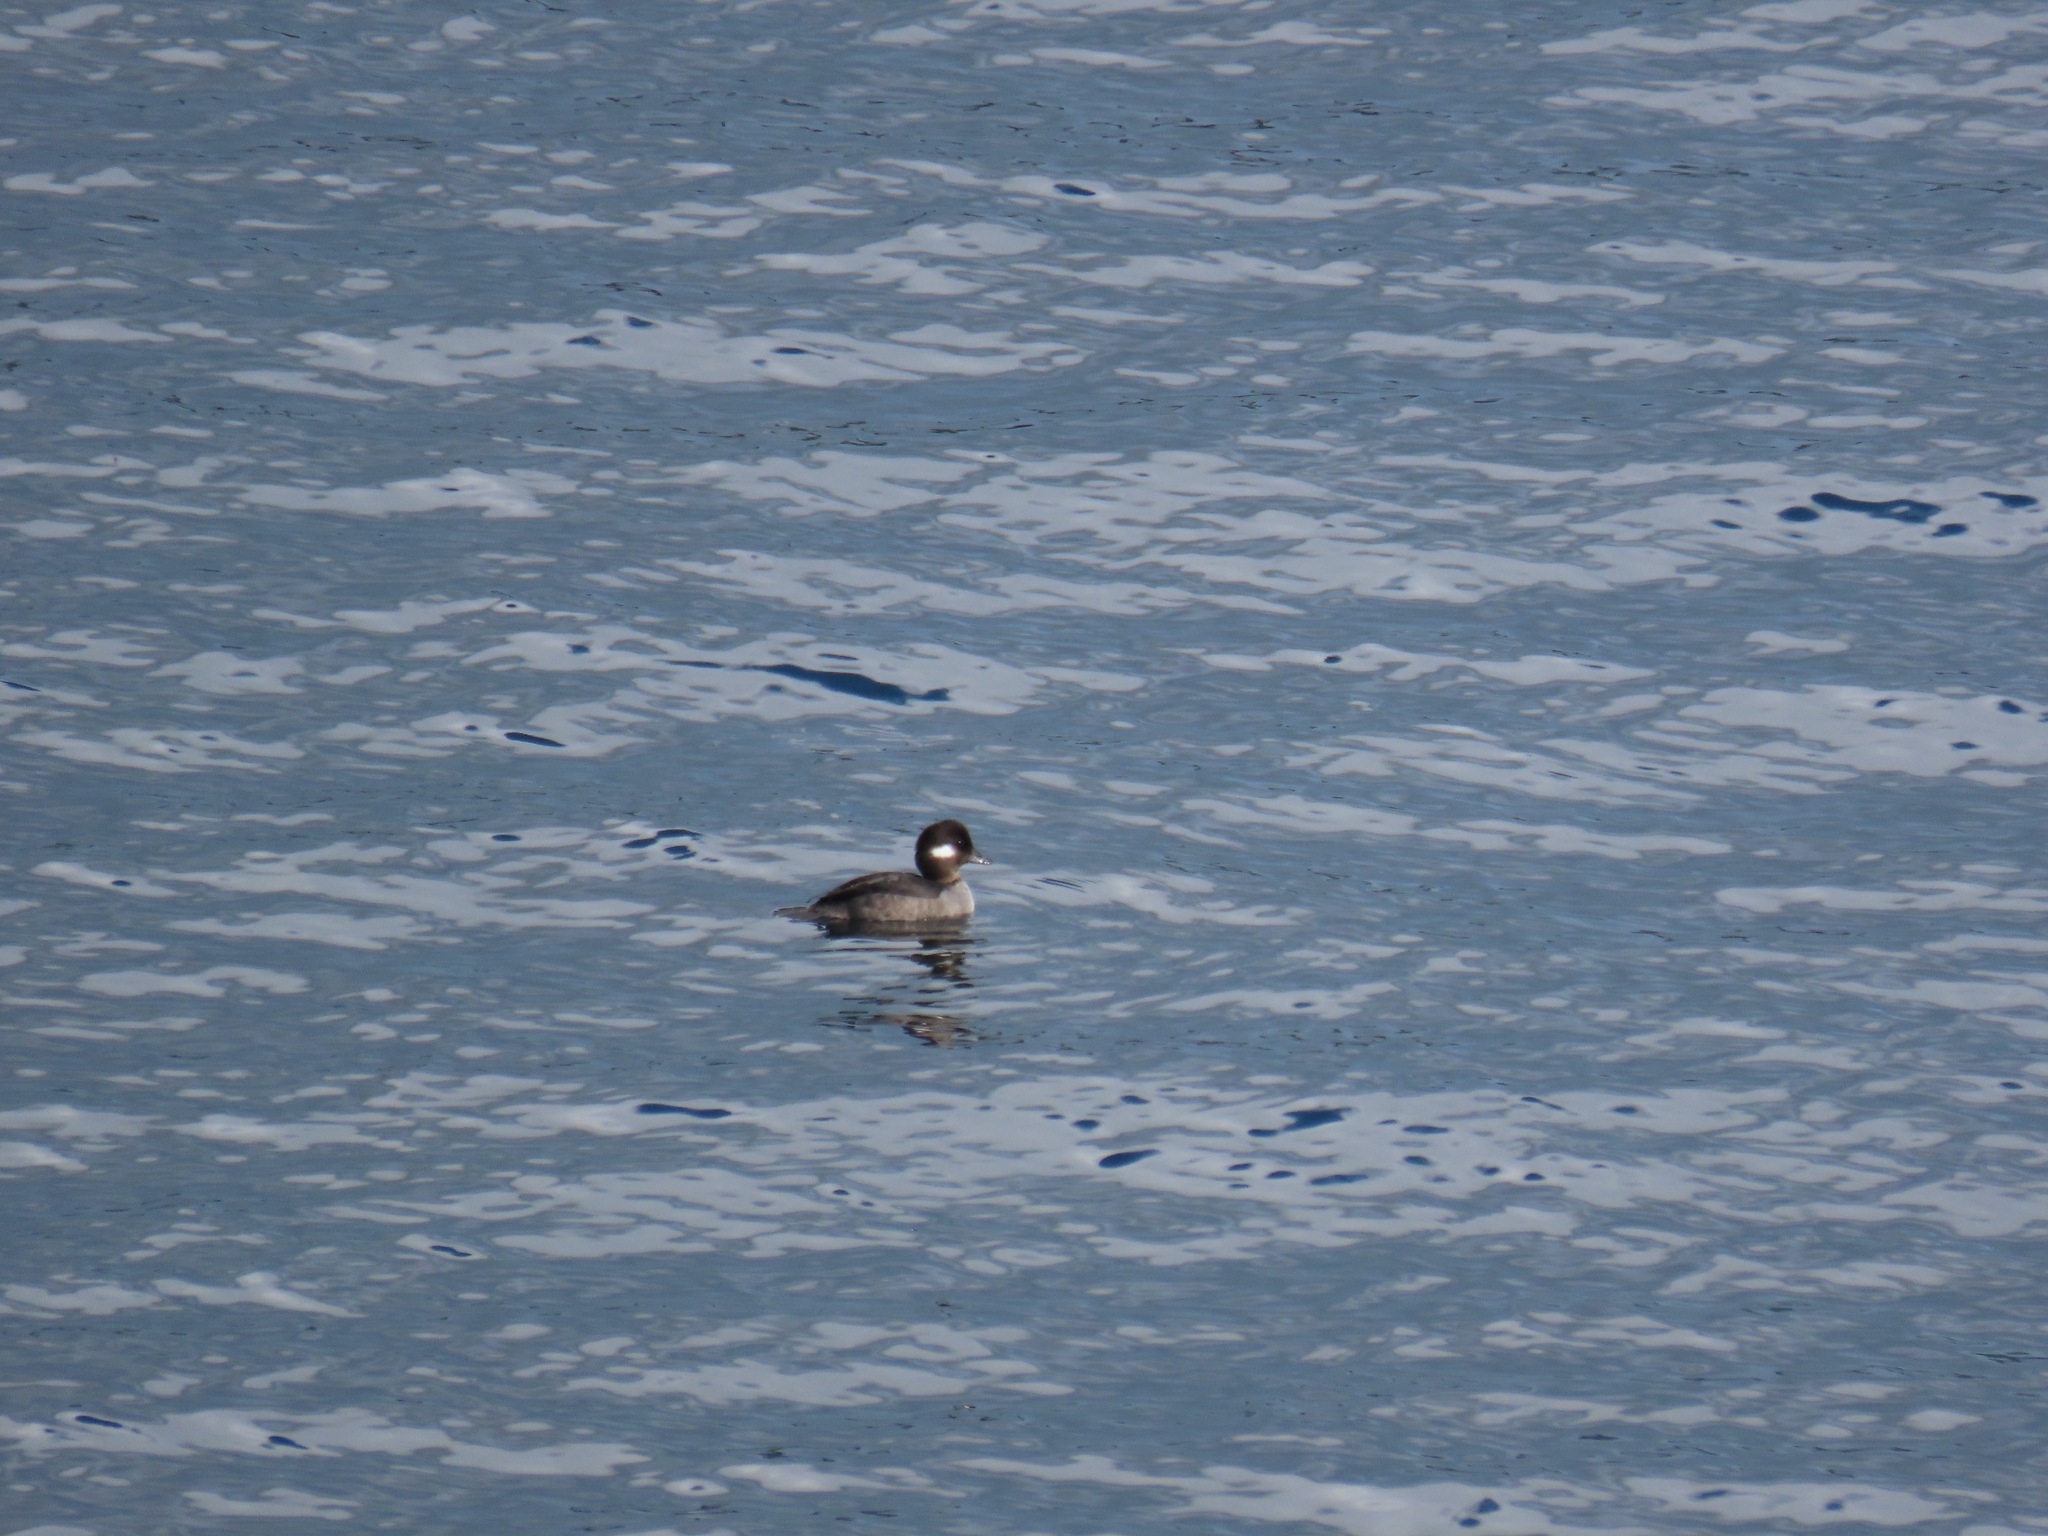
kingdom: Animalia
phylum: Chordata
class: Aves
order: Anseriformes
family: Anatidae
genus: Bucephala
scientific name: Bucephala albeola
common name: Bufflehead
